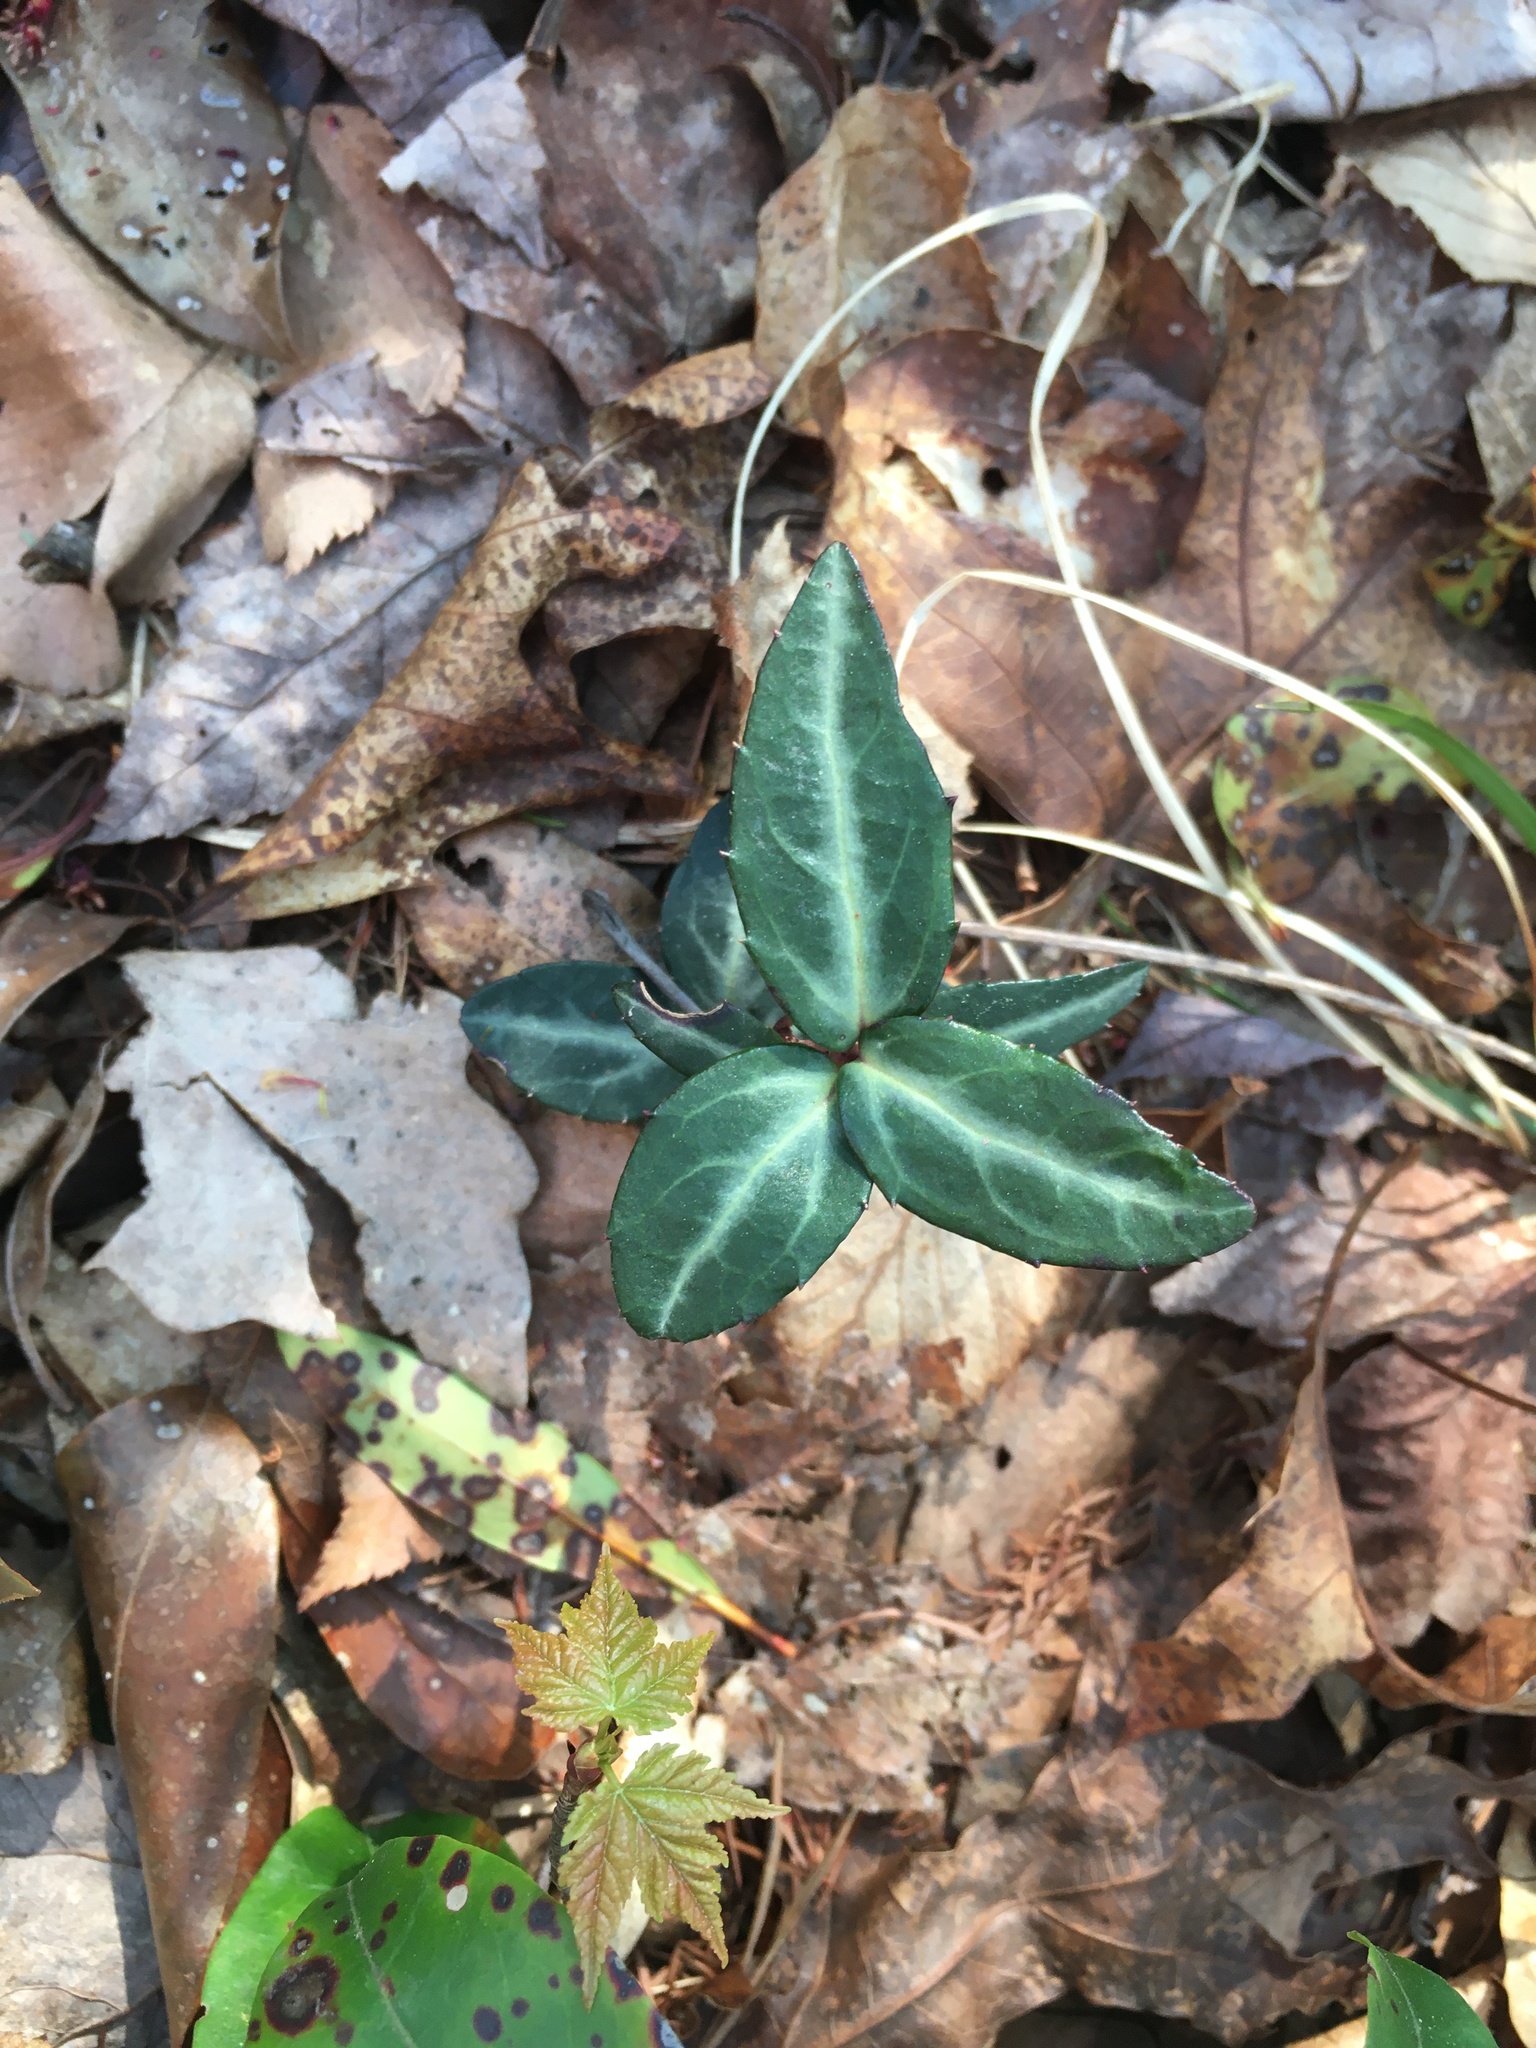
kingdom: Plantae
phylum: Tracheophyta
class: Magnoliopsida
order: Ericales
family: Ericaceae
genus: Chimaphila
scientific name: Chimaphila maculata
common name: Spotted pipsissewa
